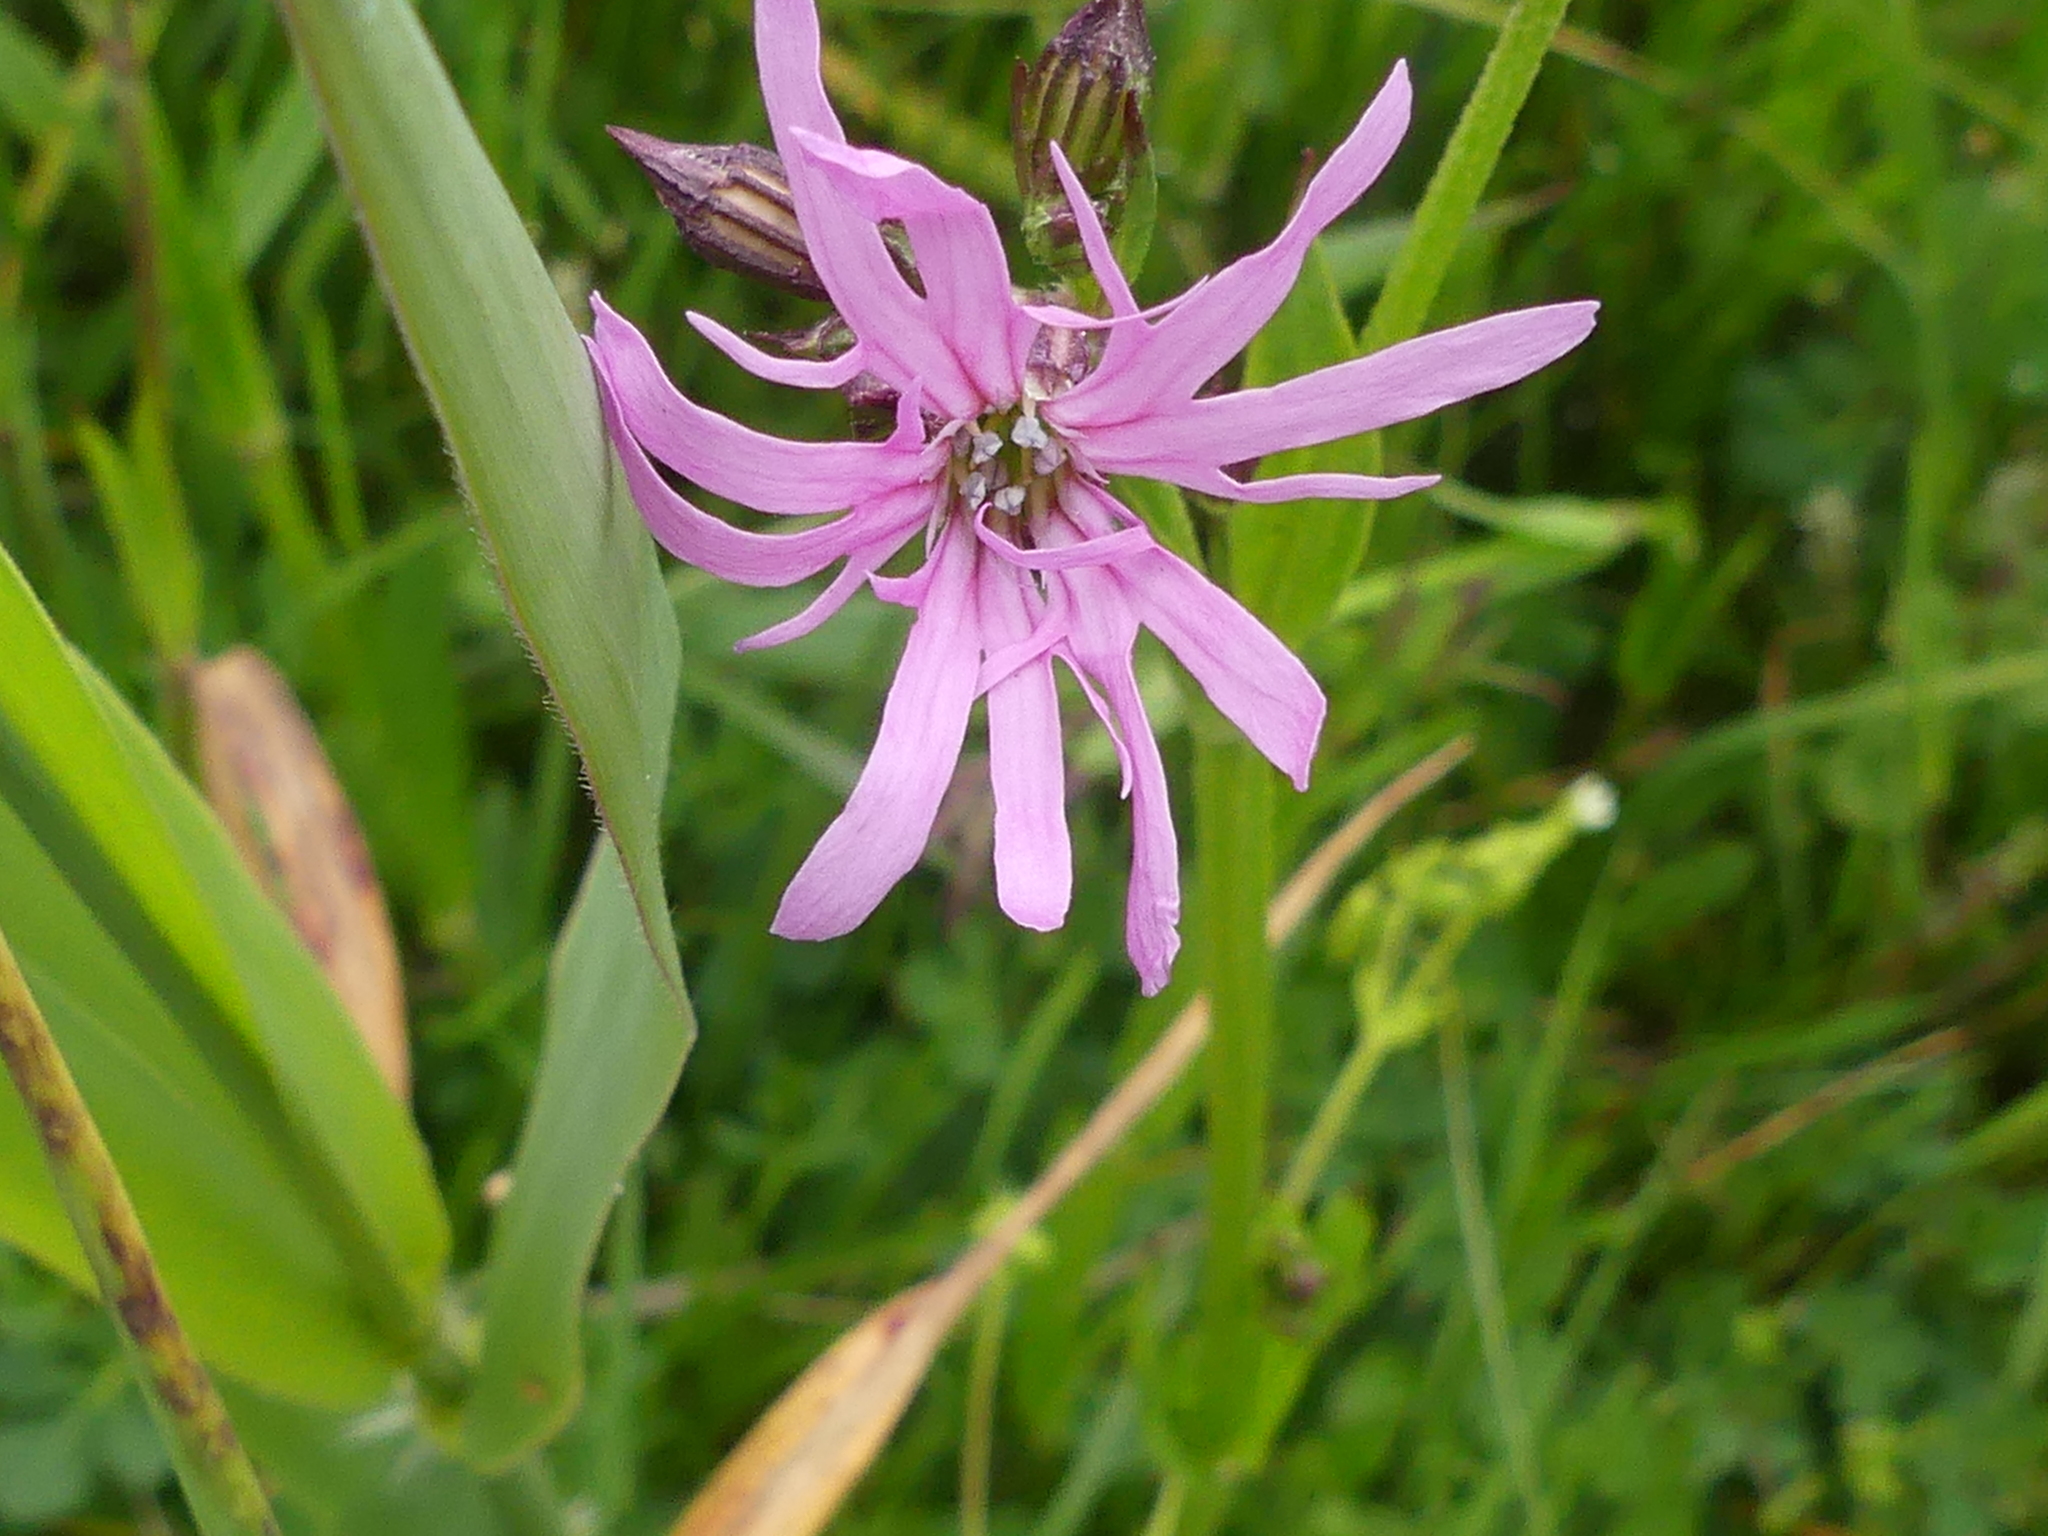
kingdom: Plantae
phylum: Tracheophyta
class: Magnoliopsida
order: Caryophyllales
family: Caryophyllaceae
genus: Silene
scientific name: Silene flos-cuculi
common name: Ragged-robin
